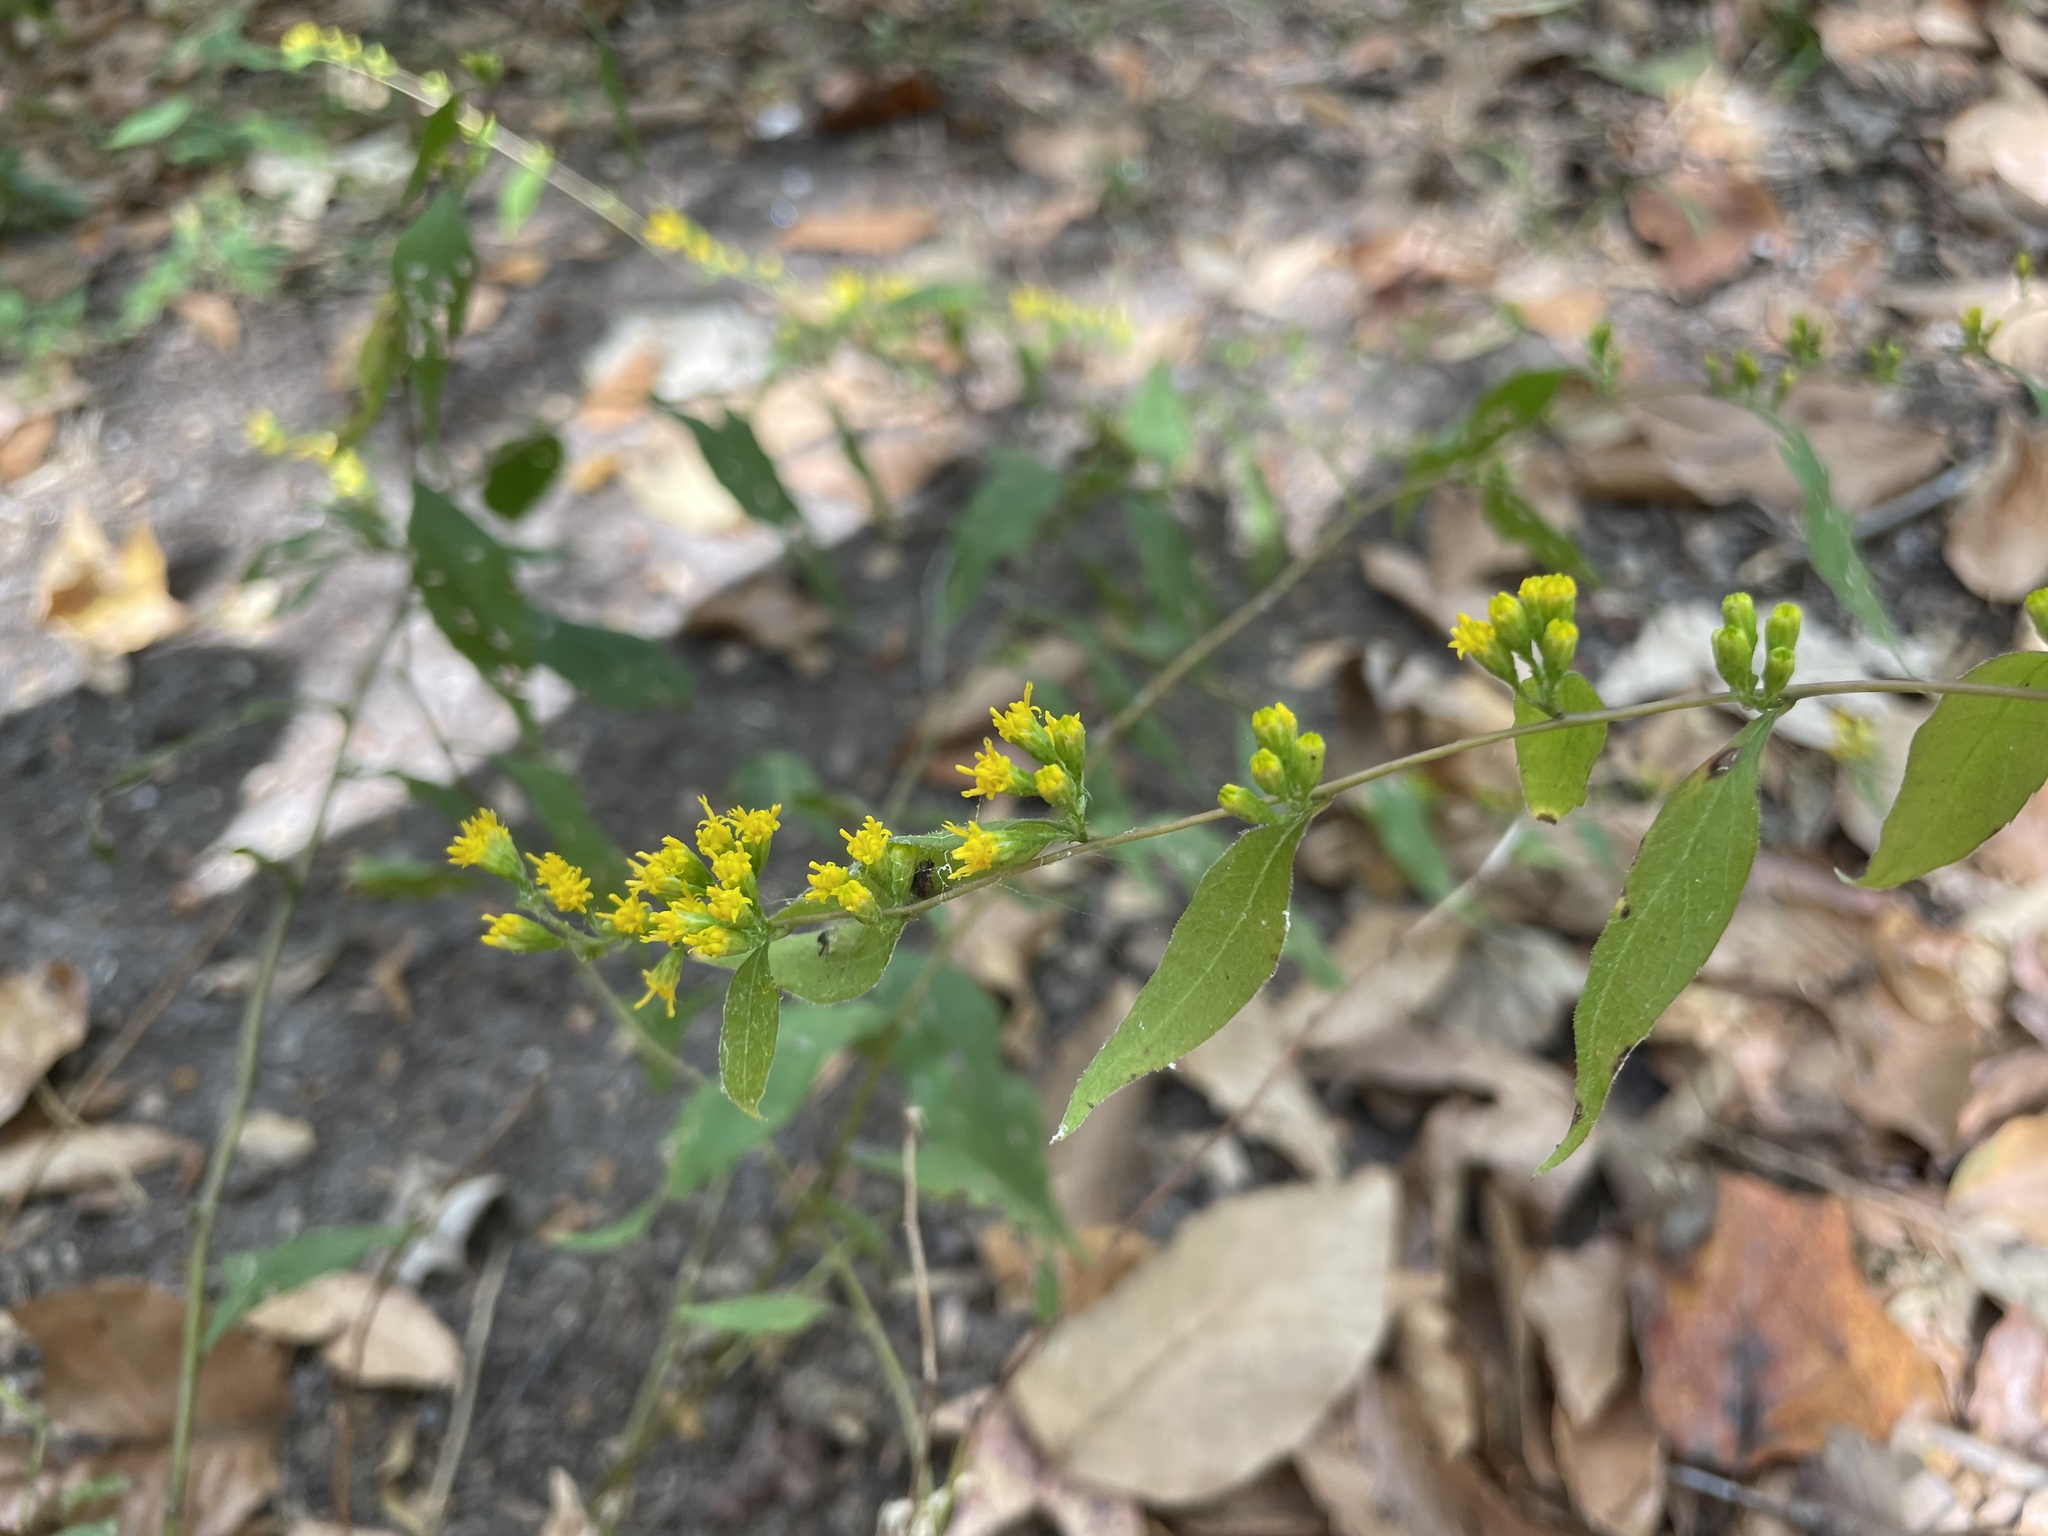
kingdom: Plantae
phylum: Tracheophyta
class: Magnoliopsida
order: Asterales
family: Asteraceae
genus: Solidago
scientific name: Solidago caesia
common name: Woodland goldenrod
